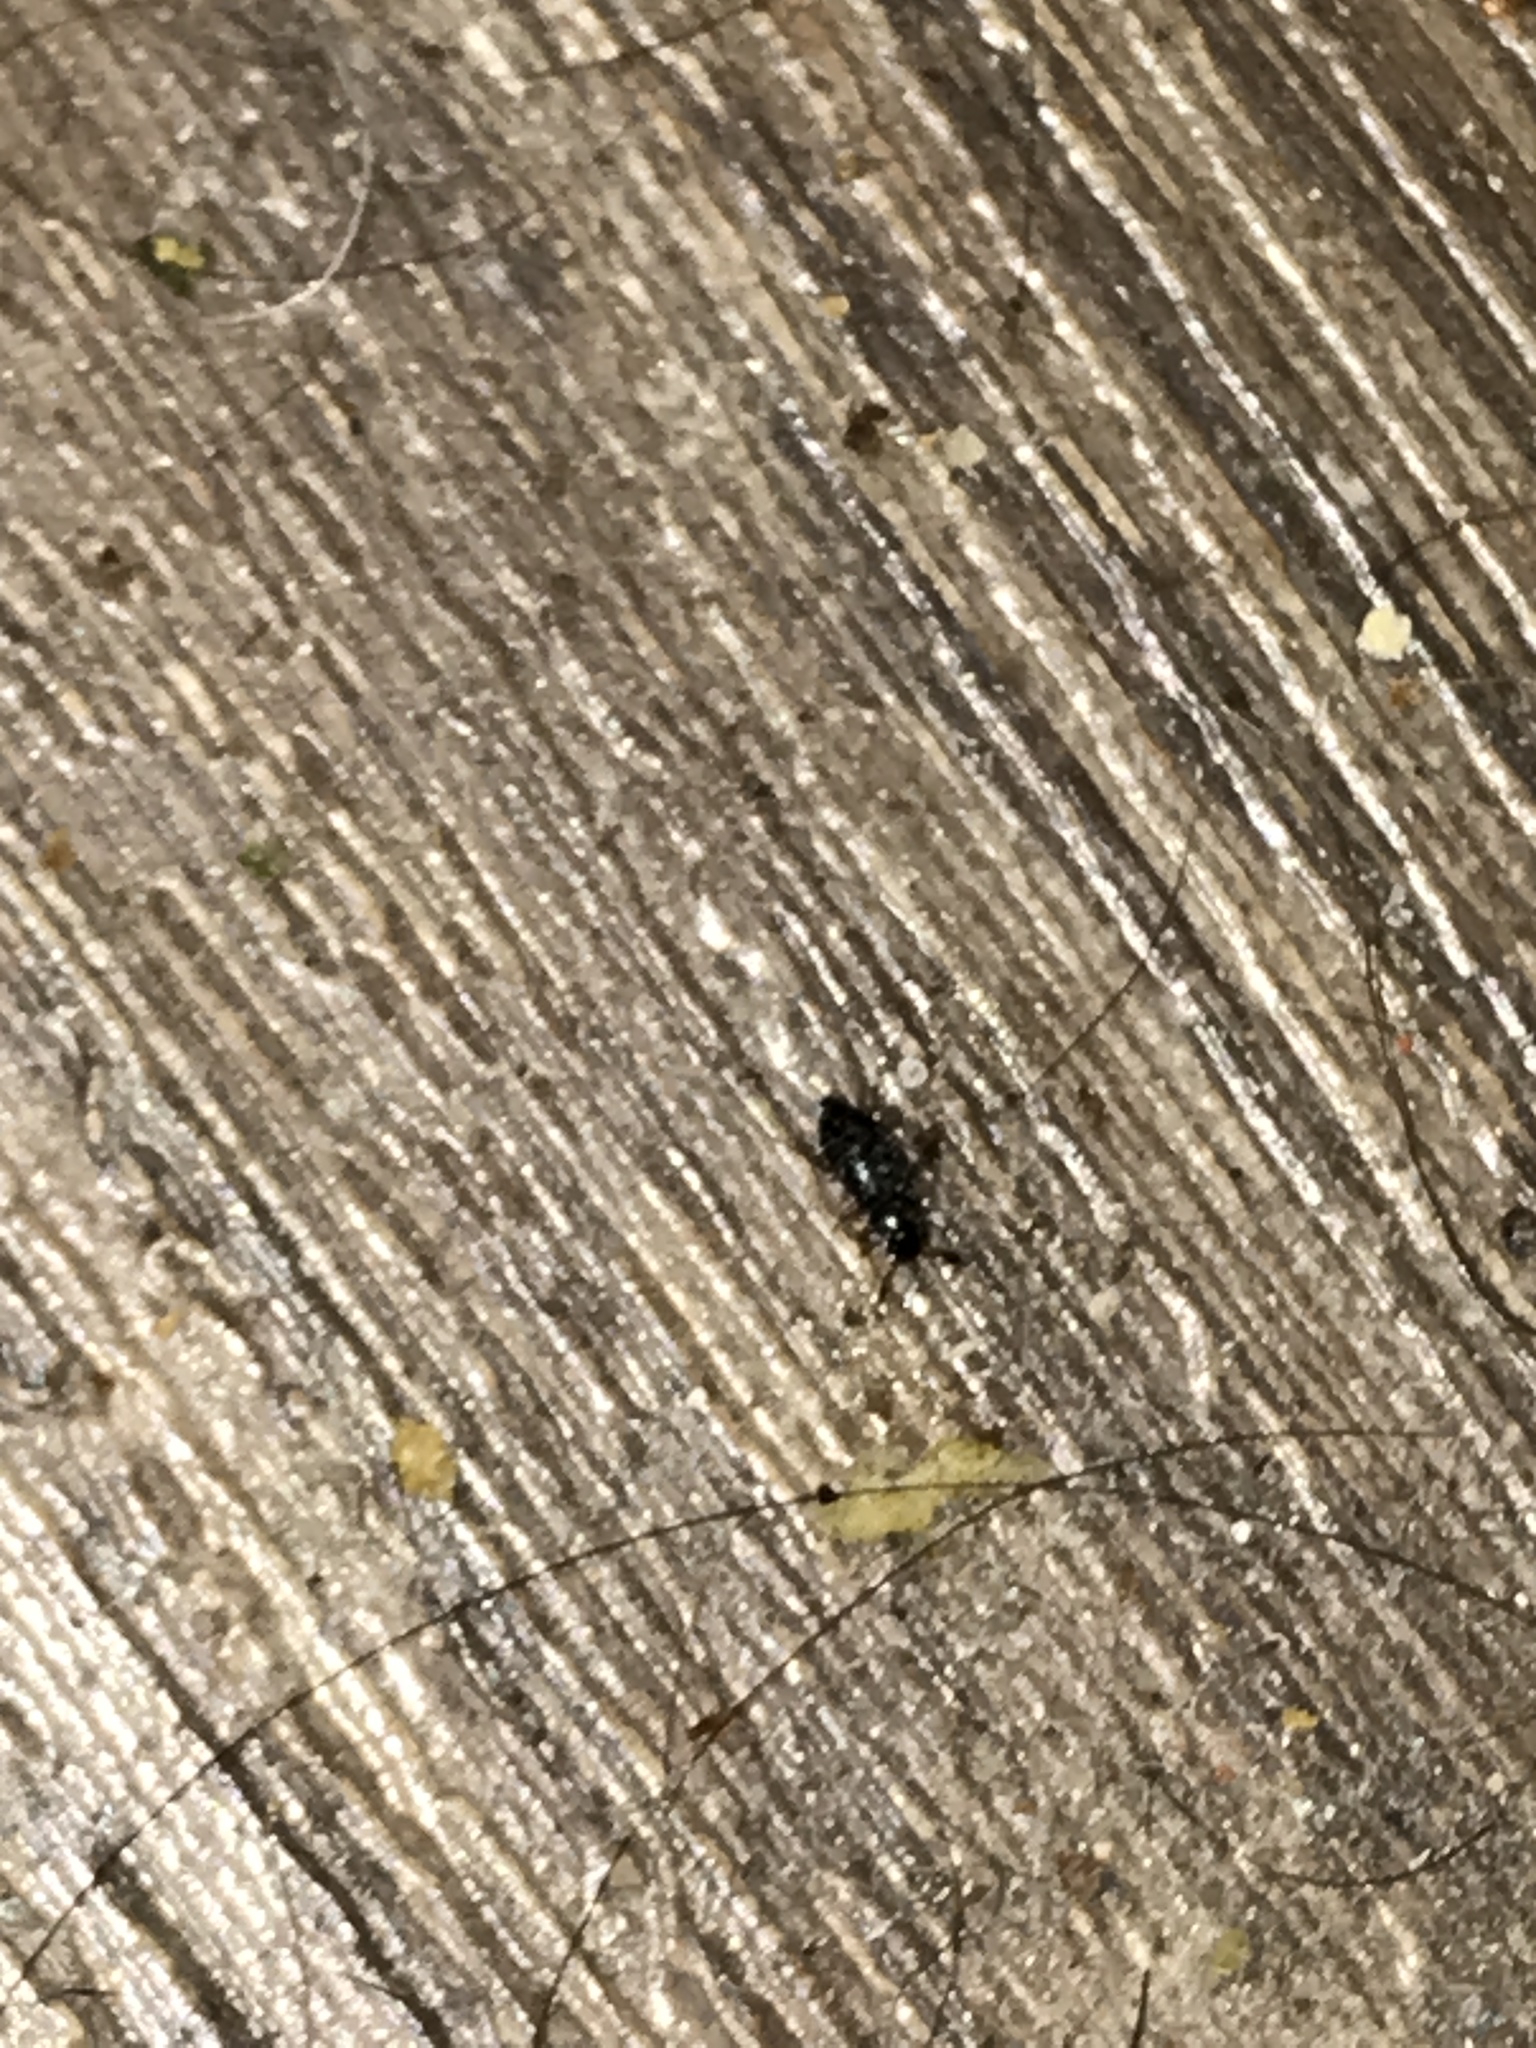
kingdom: Animalia
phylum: Arthropoda
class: Insecta
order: Coleoptera
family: Cleridae
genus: Necrobia
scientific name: Necrobia
